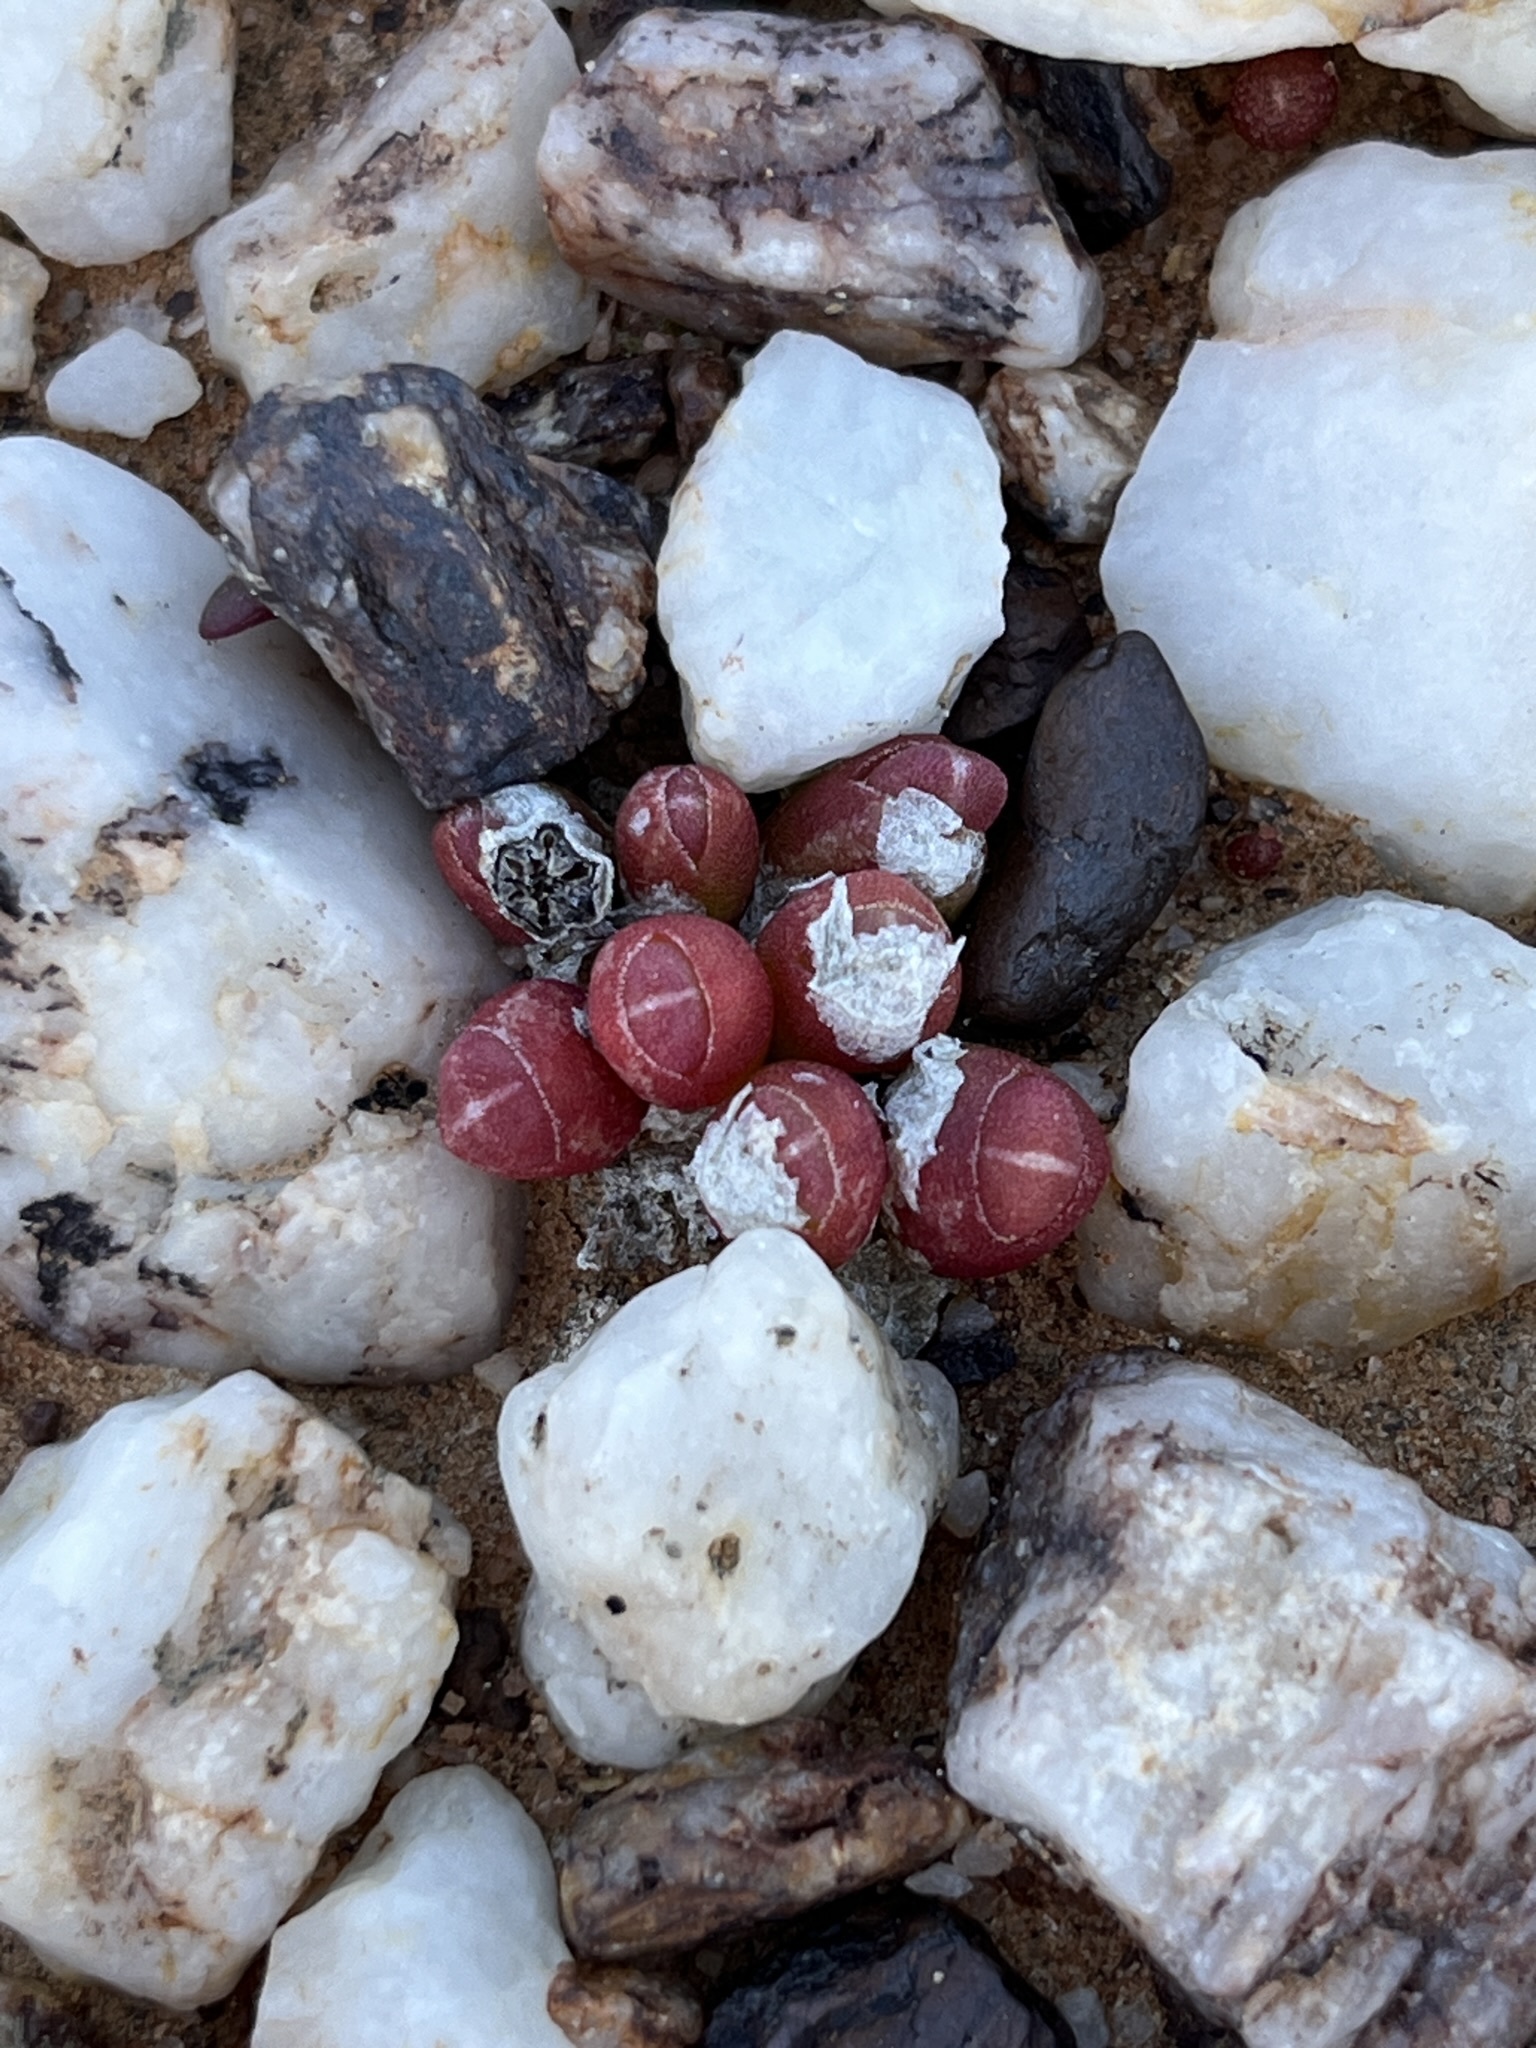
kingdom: Plantae
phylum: Tracheophyta
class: Magnoliopsida
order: Caryophyllales
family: Aizoaceae
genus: Oophytum
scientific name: Oophytum nanum
